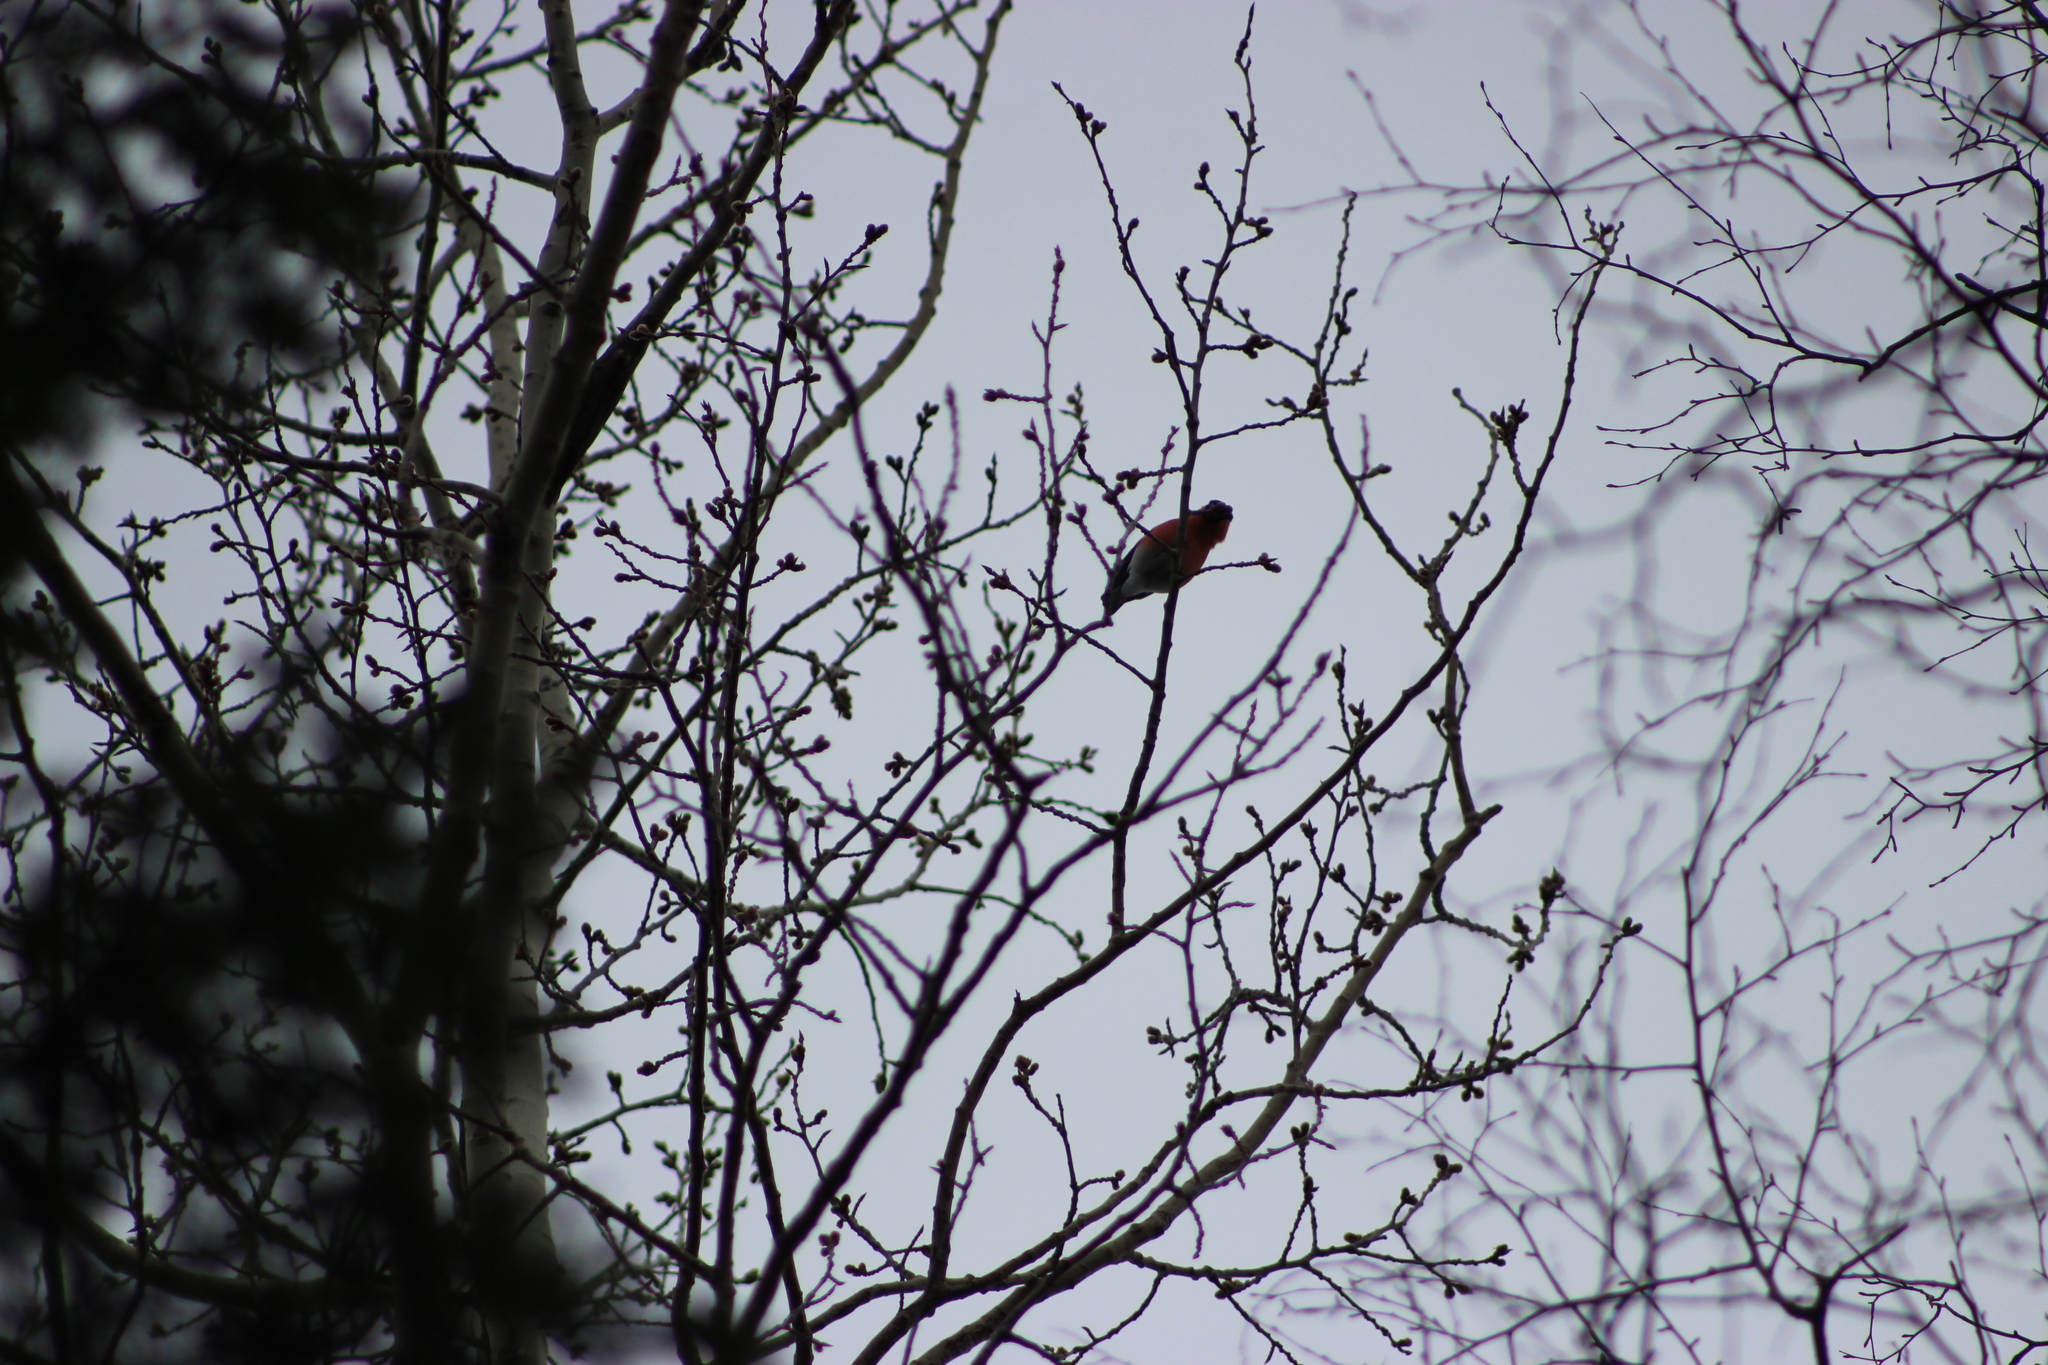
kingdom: Animalia
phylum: Chordata
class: Aves
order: Passeriformes
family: Fringillidae
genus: Pyrrhula
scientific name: Pyrrhula pyrrhula
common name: Eurasian bullfinch
